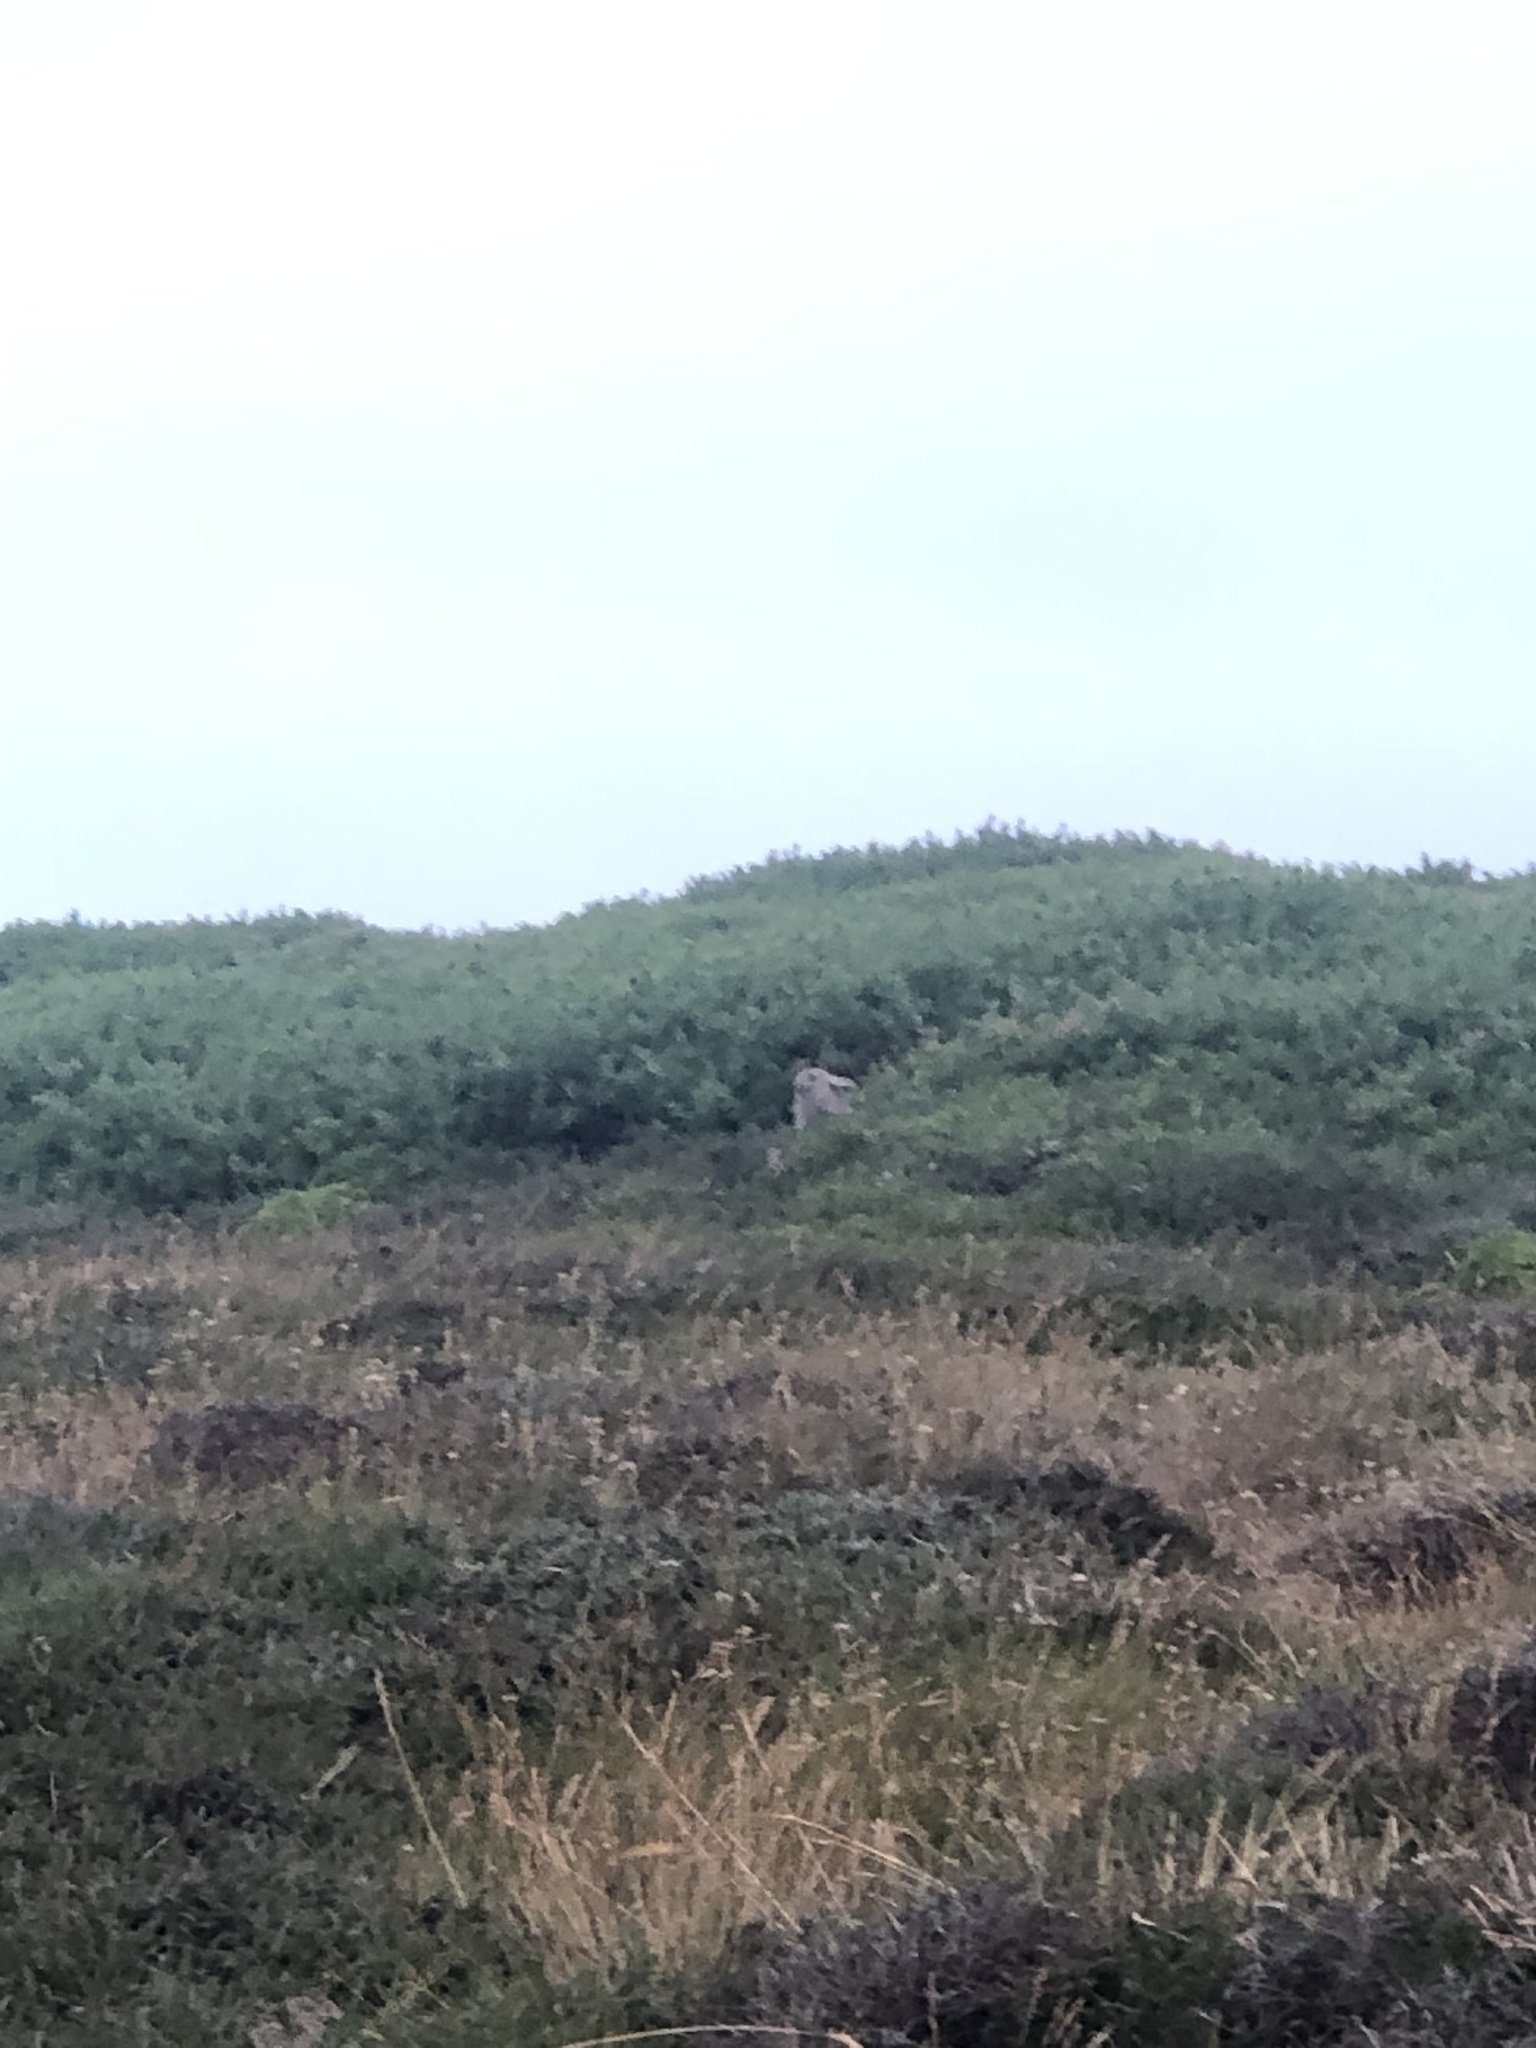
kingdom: Animalia
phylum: Chordata
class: Mammalia
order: Lagomorpha
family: Leporidae
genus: Oryctolagus
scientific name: Oryctolagus cuniculus
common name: European rabbit
